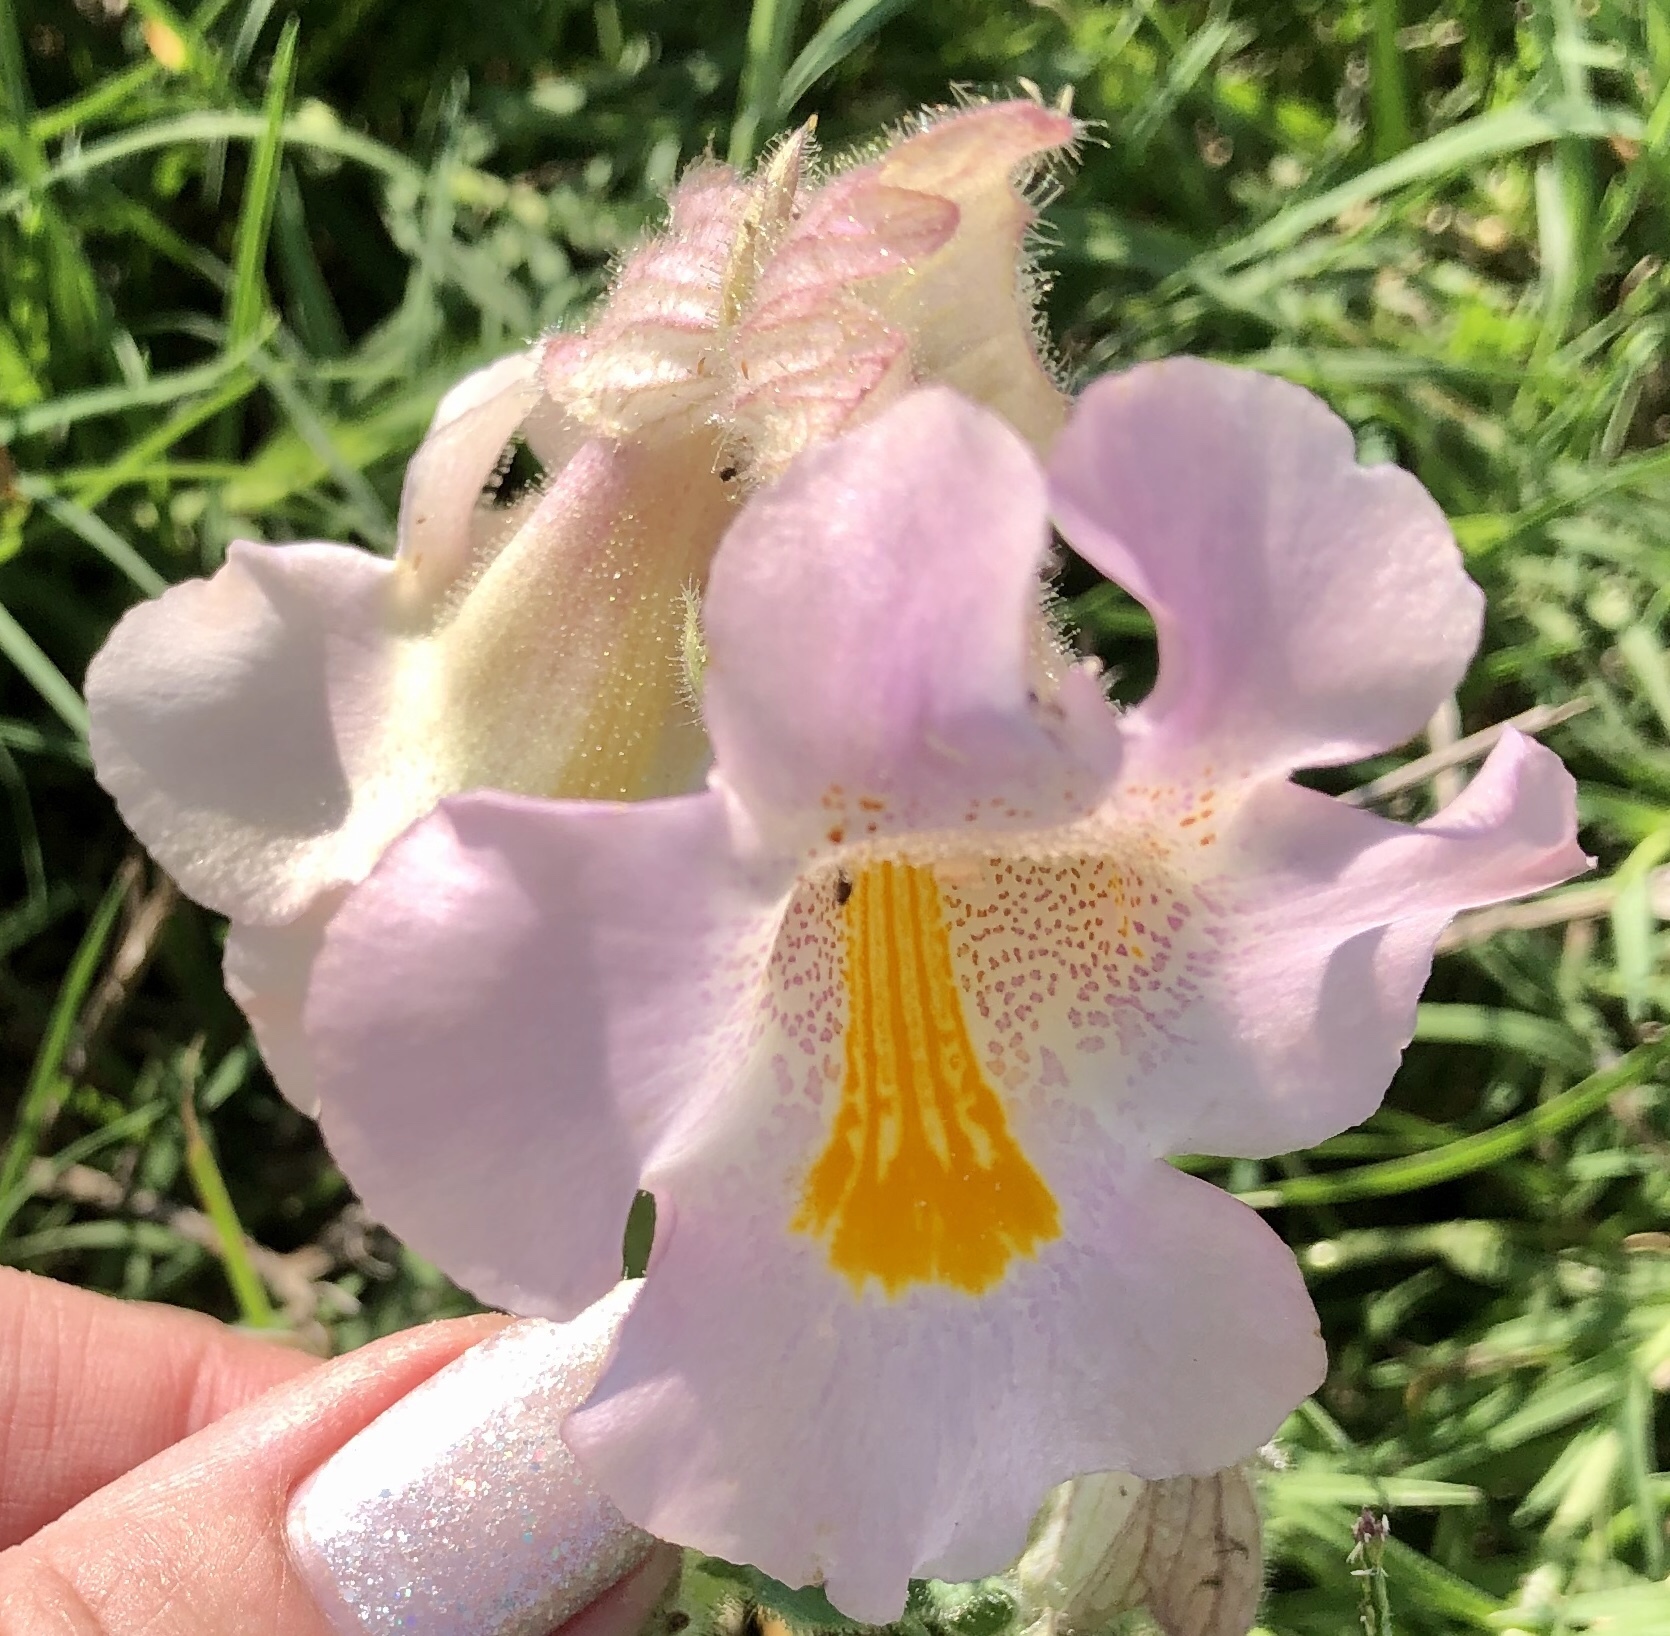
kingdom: Plantae
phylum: Tracheophyta
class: Magnoliopsida
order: Lamiales
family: Martyniaceae
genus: Proboscidea
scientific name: Proboscidea louisianica
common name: Elephant tusks
